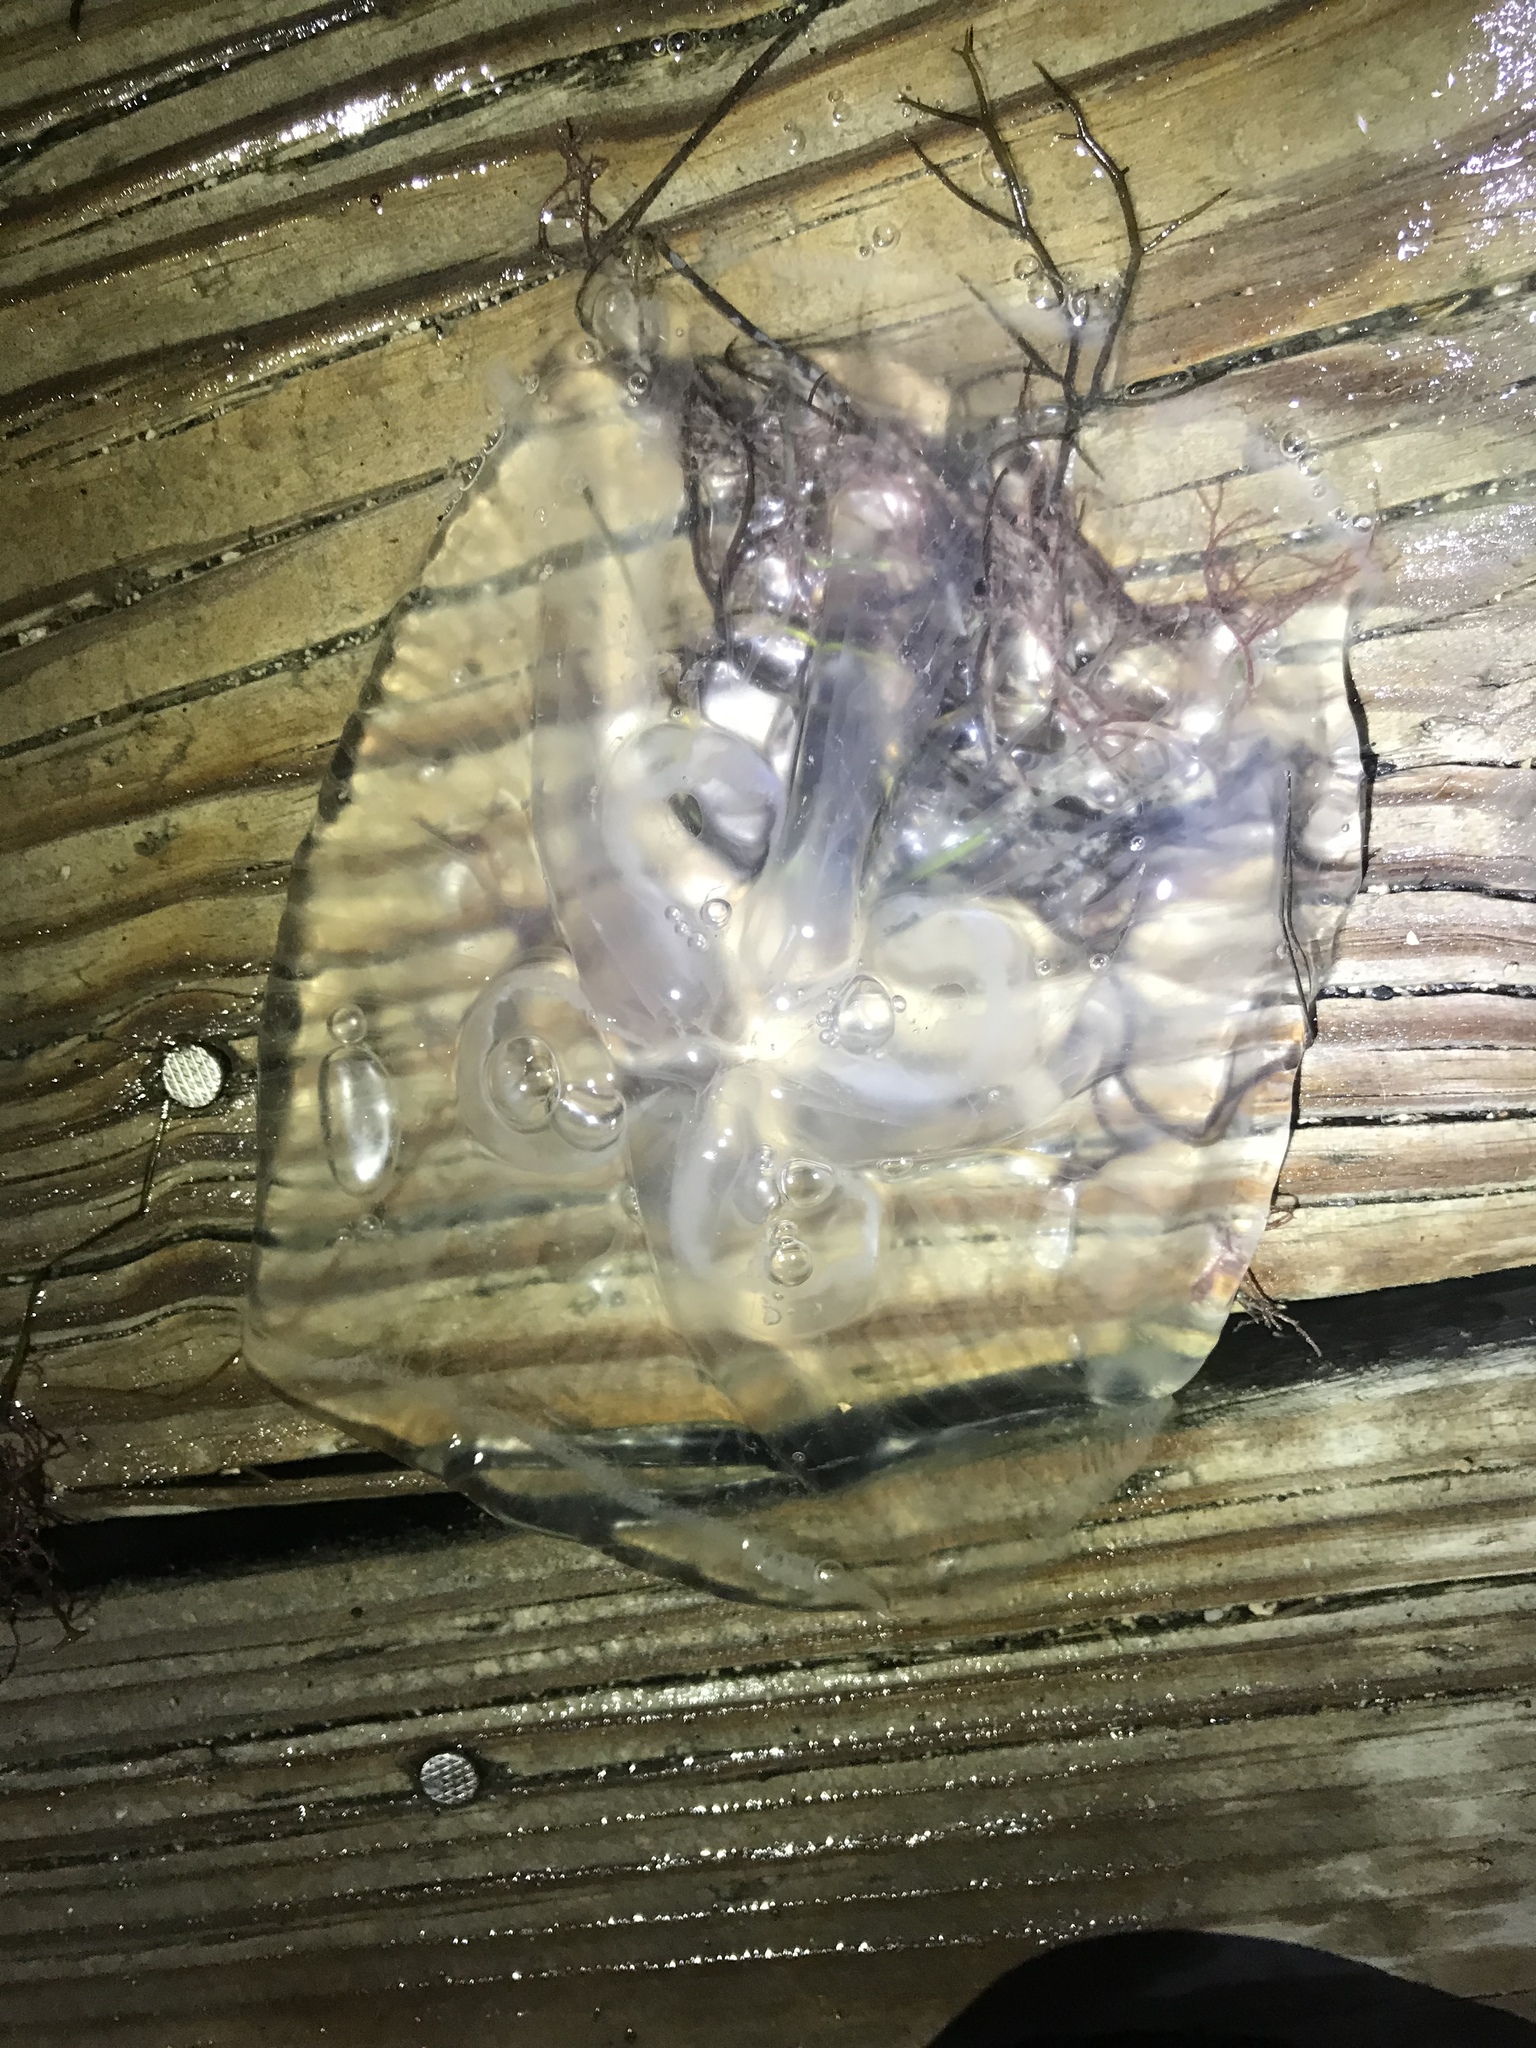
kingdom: Animalia
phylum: Cnidaria
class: Scyphozoa
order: Semaeostomeae
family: Ulmaridae
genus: Aurelia
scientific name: Aurelia marginalis
